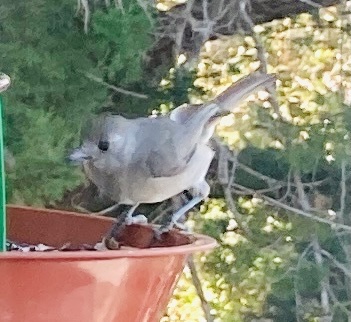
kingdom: Animalia
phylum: Chordata
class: Aves
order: Passeriformes
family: Paridae
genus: Baeolophus
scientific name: Baeolophus inornatus
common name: Oak titmouse
